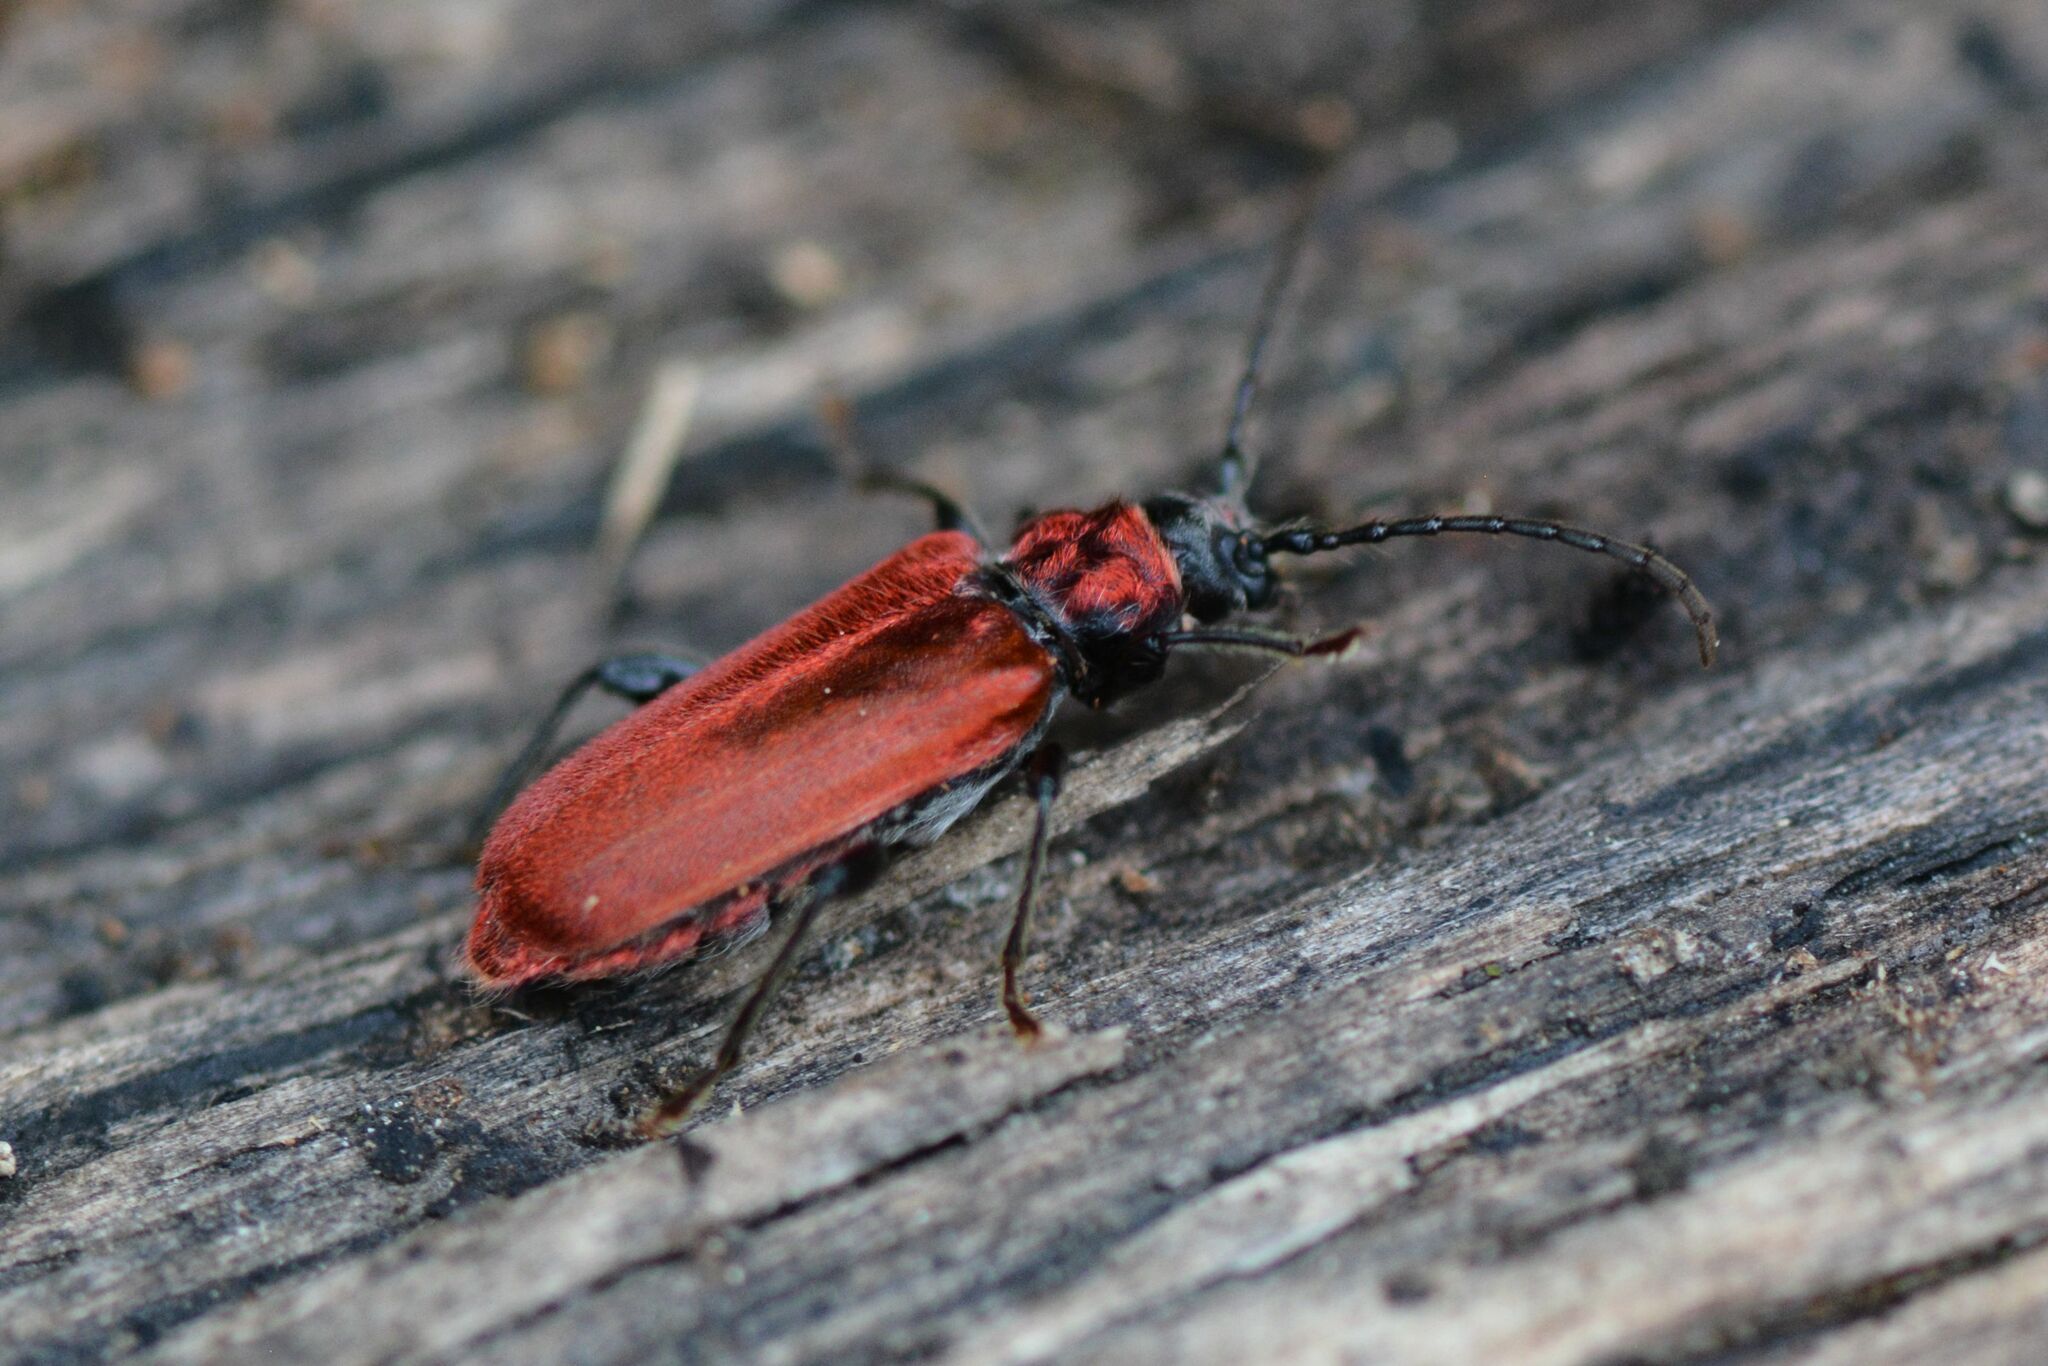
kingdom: Animalia
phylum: Arthropoda
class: Insecta
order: Coleoptera
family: Cerambycidae
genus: Pyrrhidium
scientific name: Pyrrhidium sanguineum
